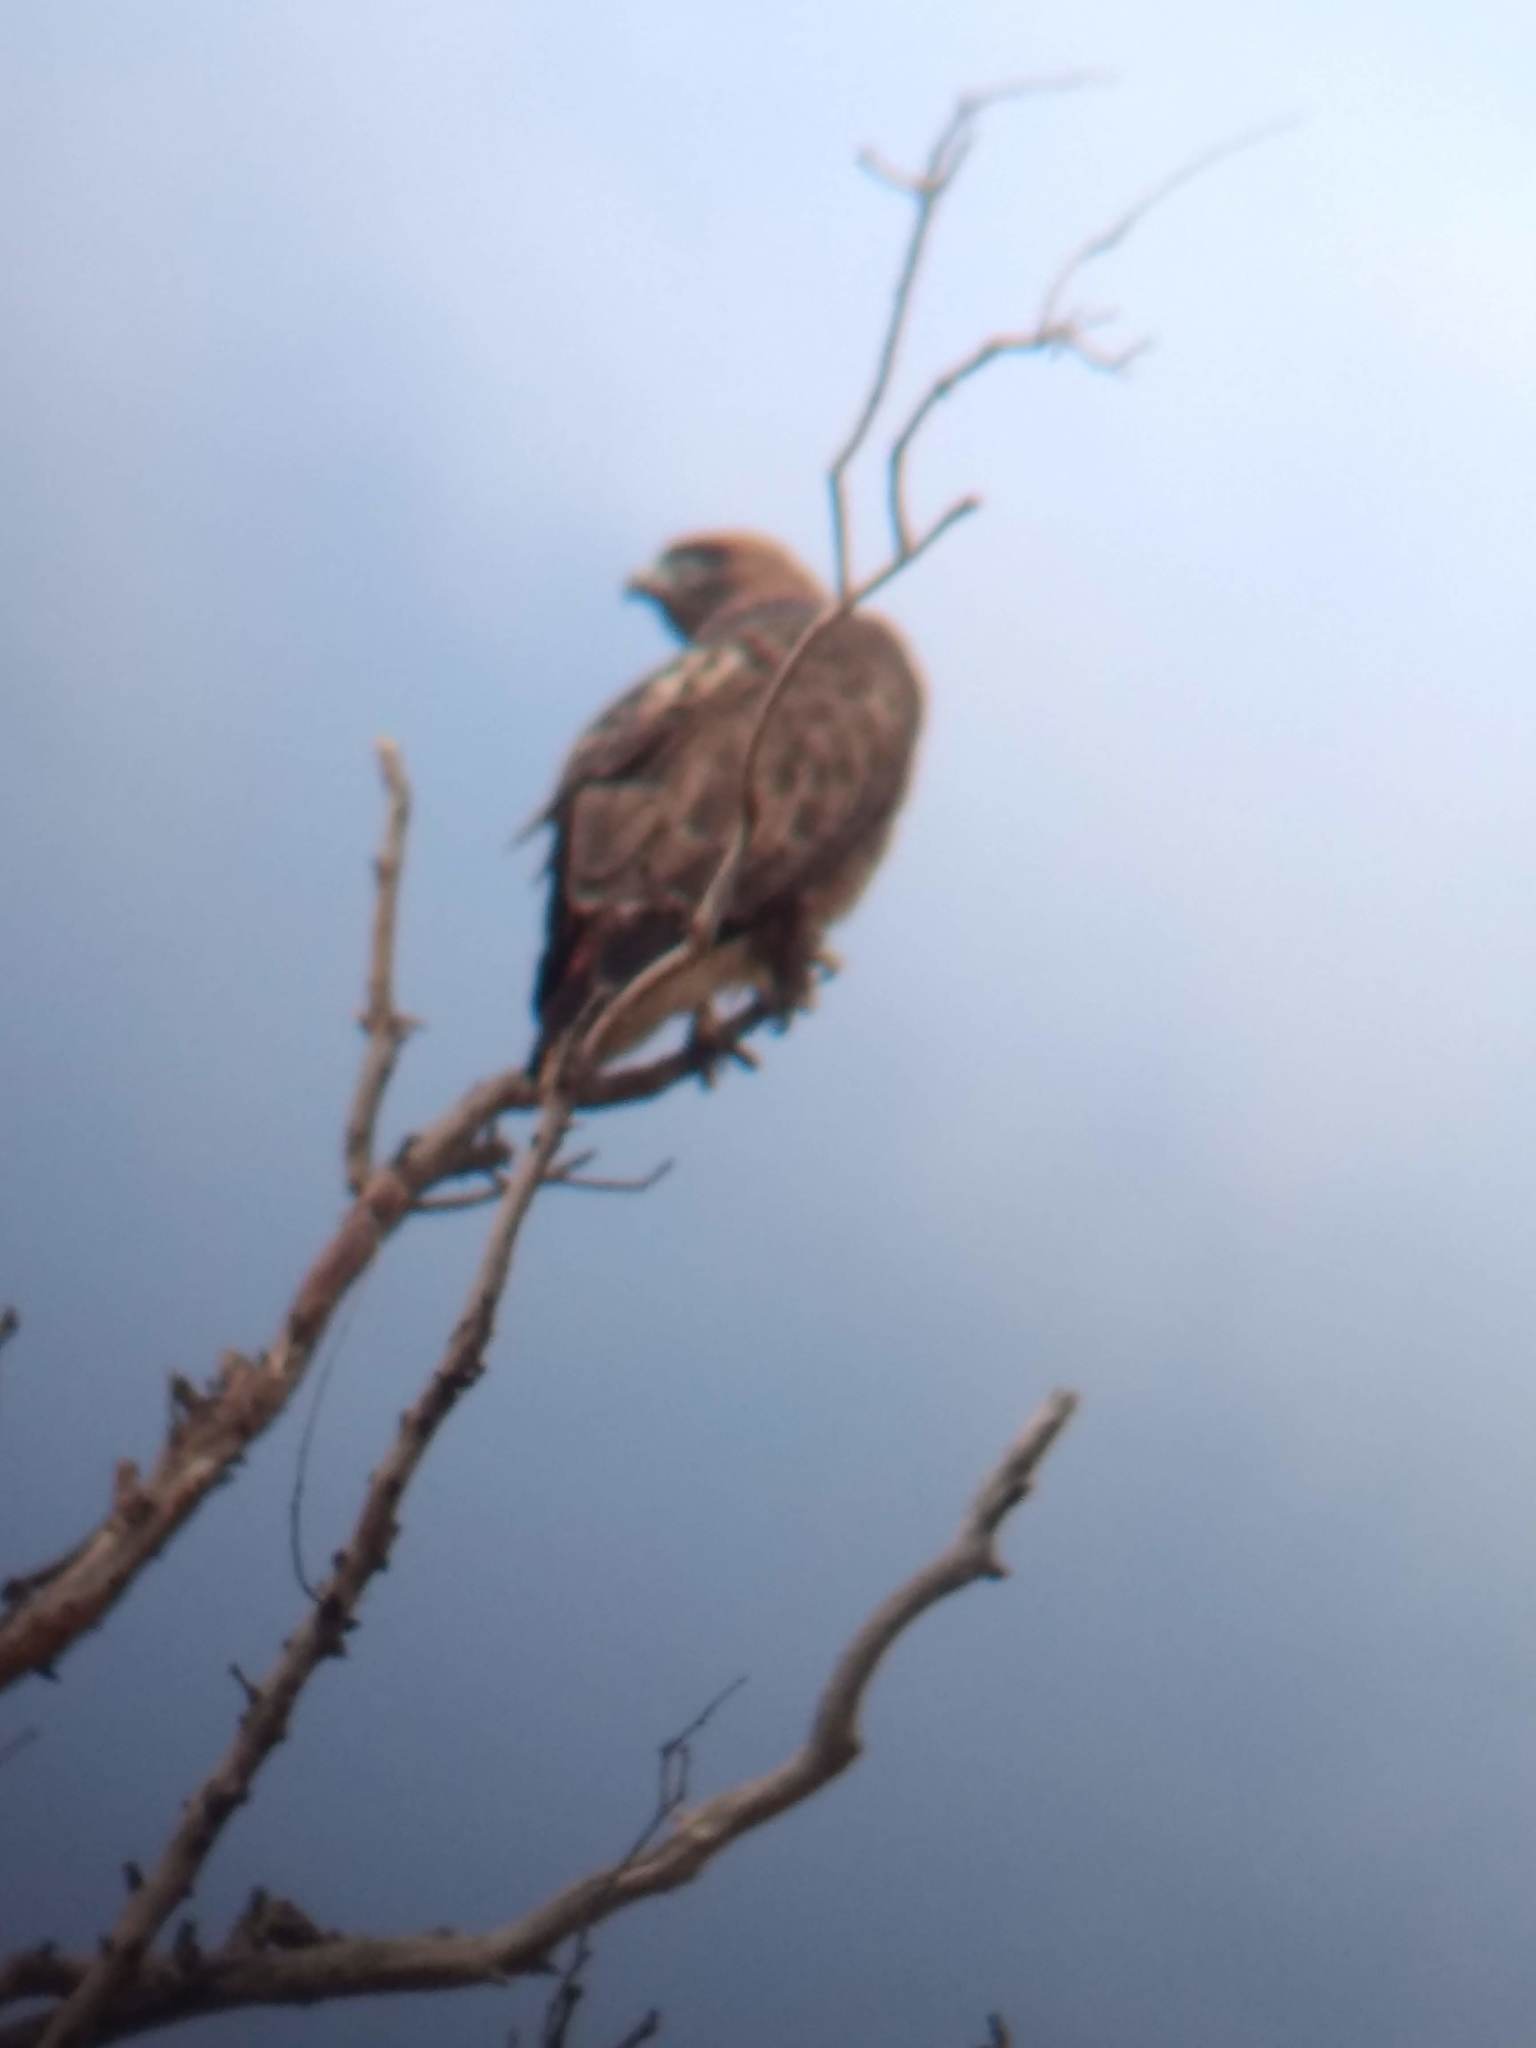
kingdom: Animalia
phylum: Chordata
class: Aves
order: Accipitriformes
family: Accipitridae
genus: Buteo
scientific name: Buteo jamaicensis
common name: Red-tailed hawk
